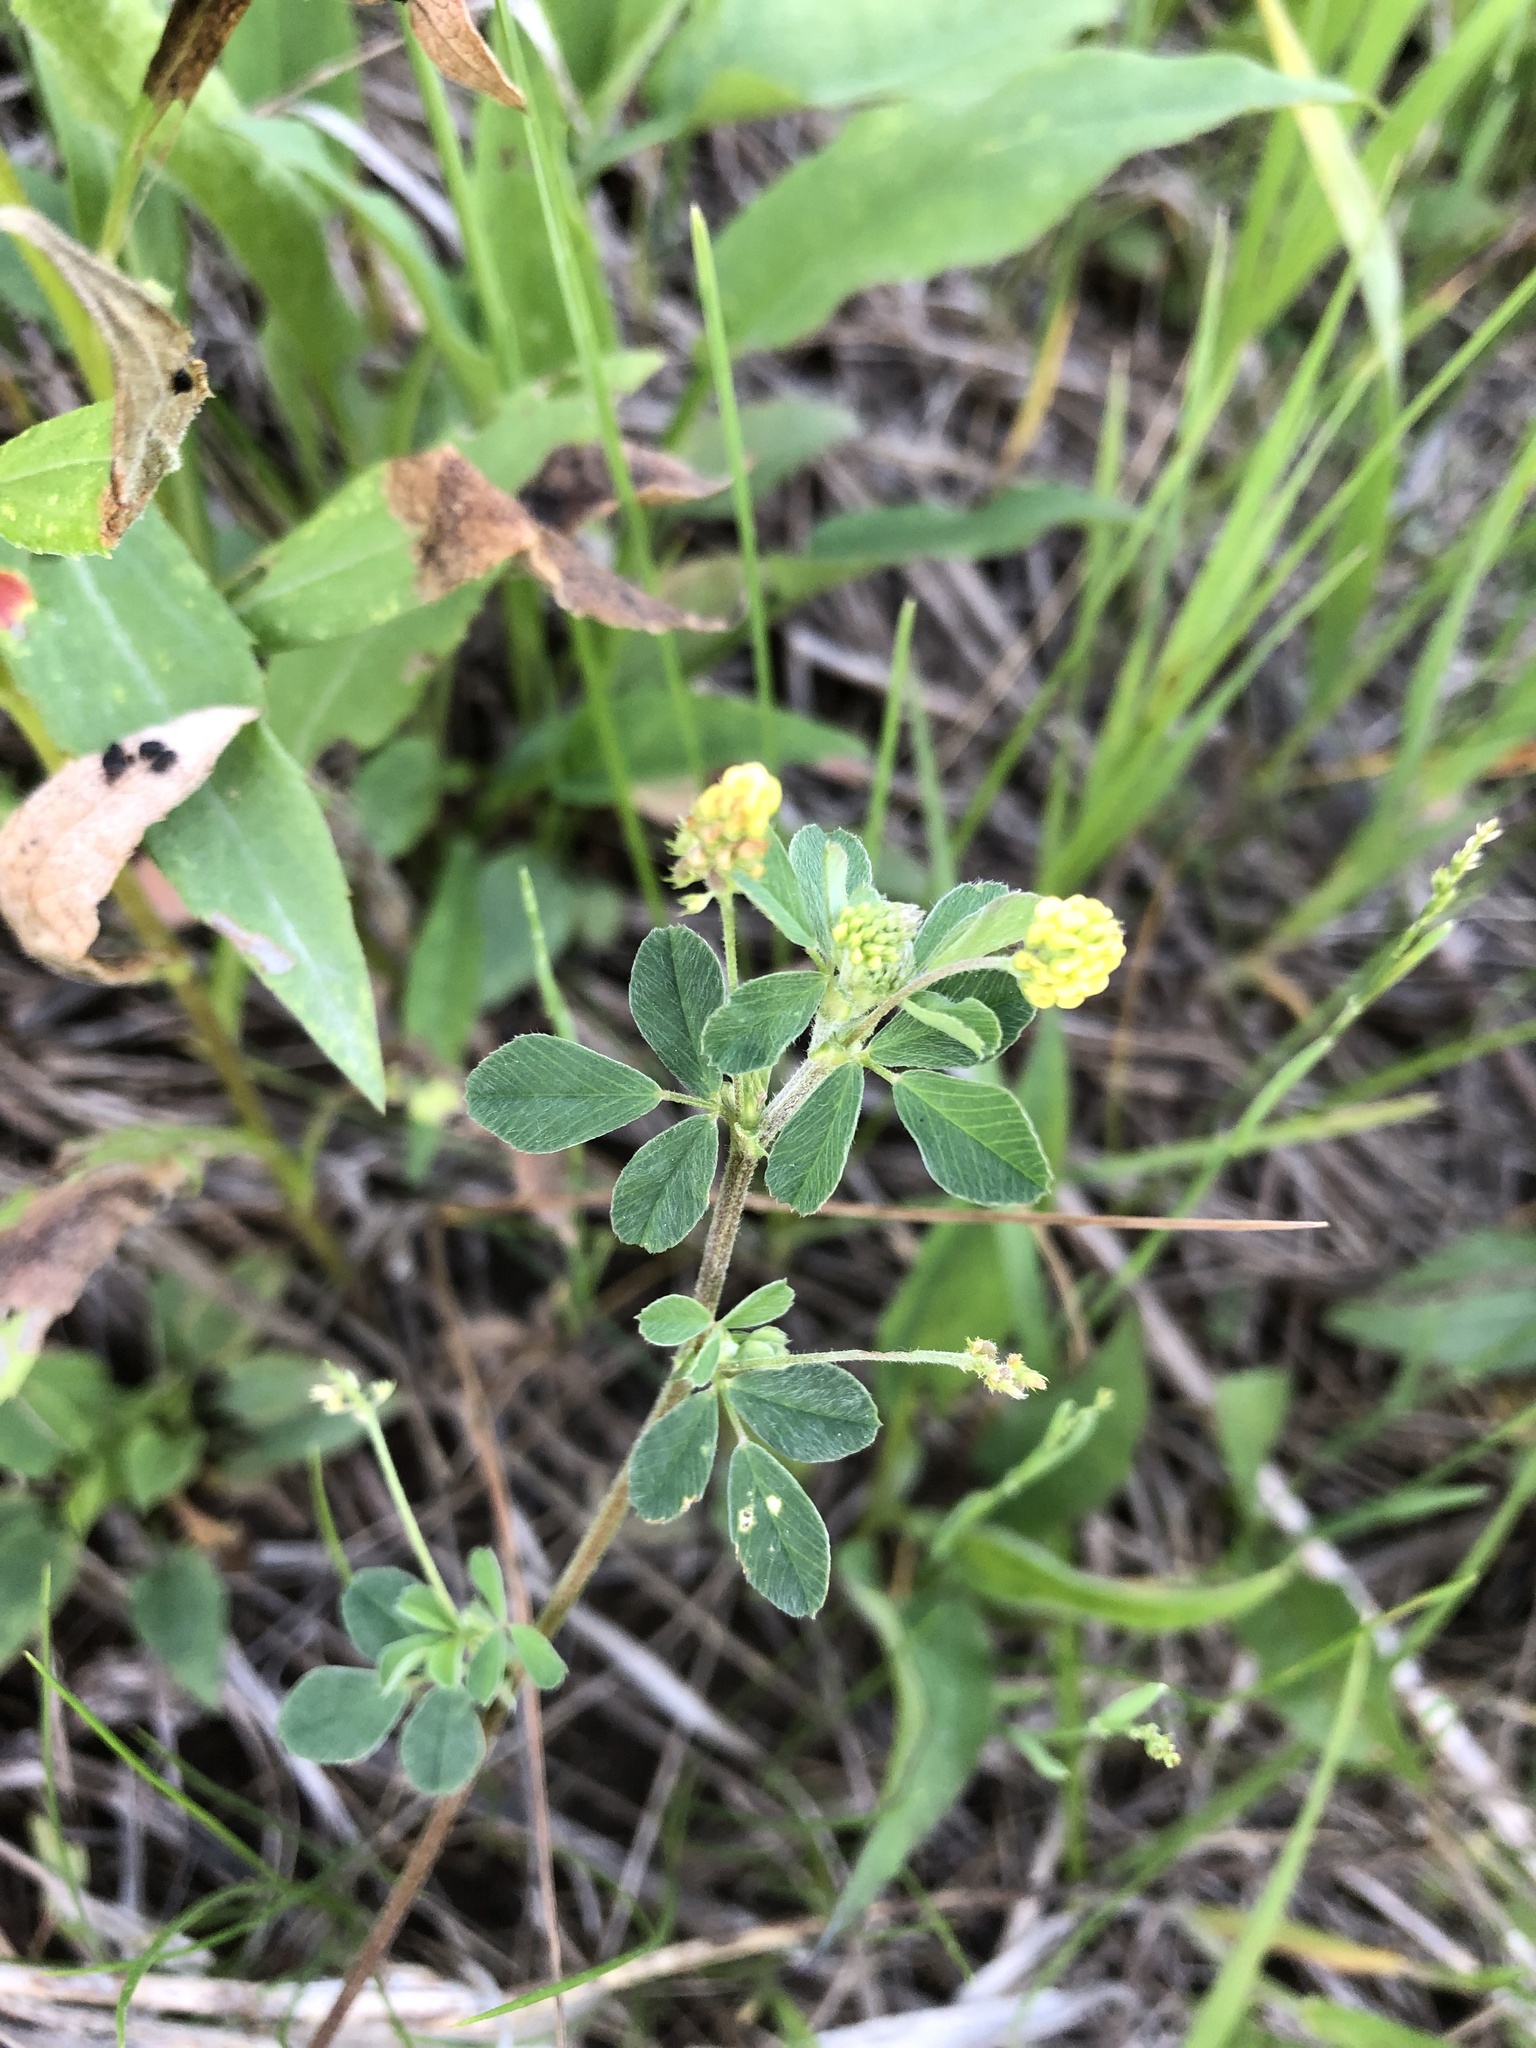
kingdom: Plantae
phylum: Tracheophyta
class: Magnoliopsida
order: Fabales
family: Fabaceae
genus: Medicago
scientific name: Medicago lupulina
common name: Black medick
